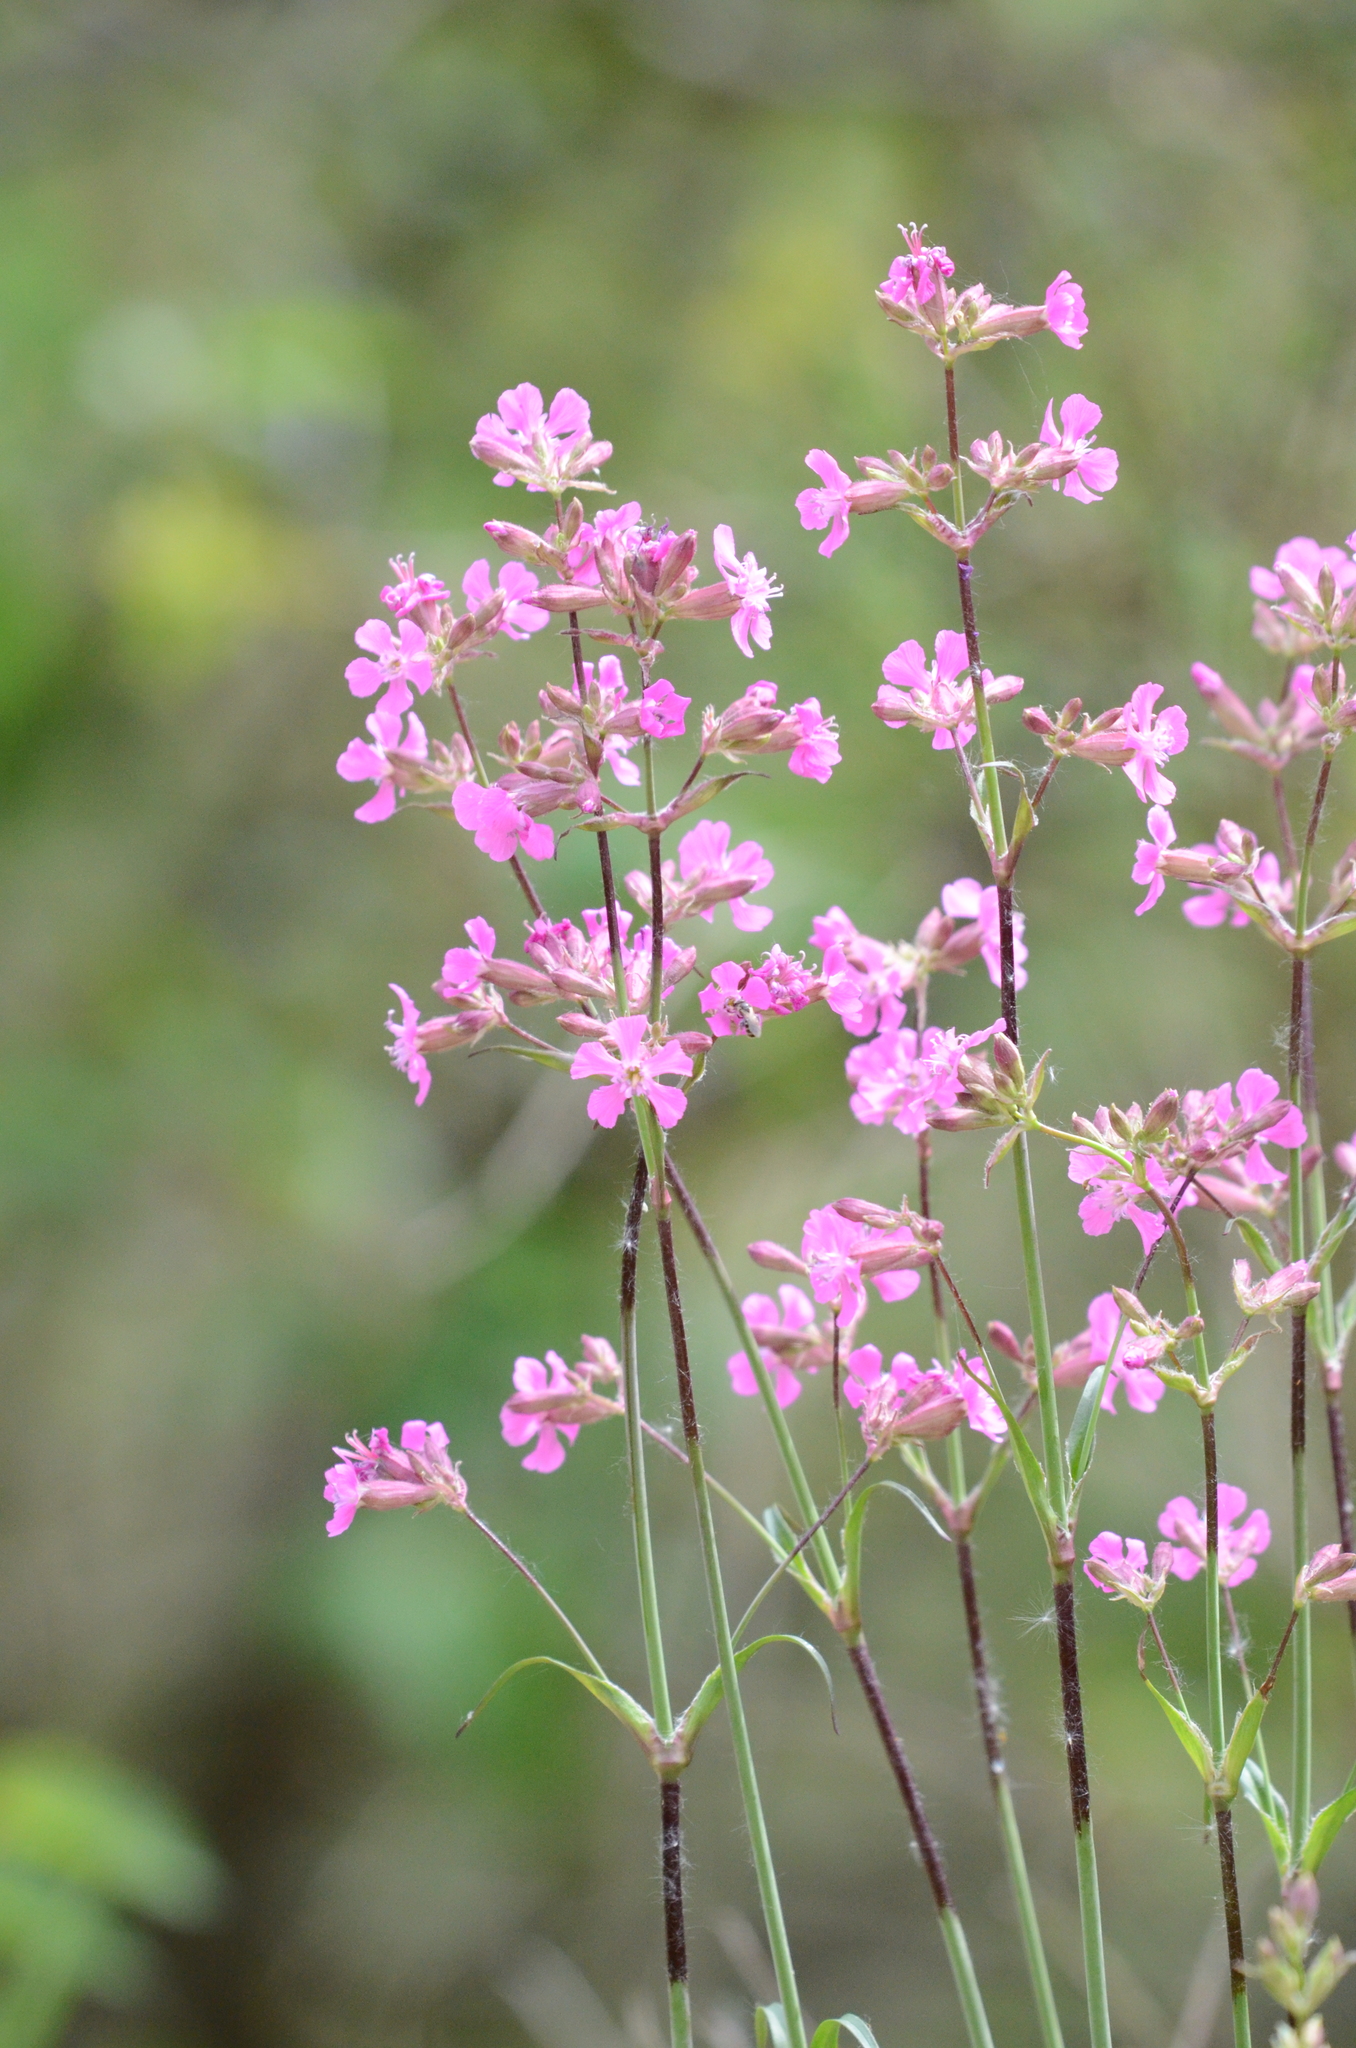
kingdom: Plantae
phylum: Tracheophyta
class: Magnoliopsida
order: Caryophyllales
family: Caryophyllaceae
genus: Viscaria
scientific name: Viscaria vulgaris
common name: Clammy campion
